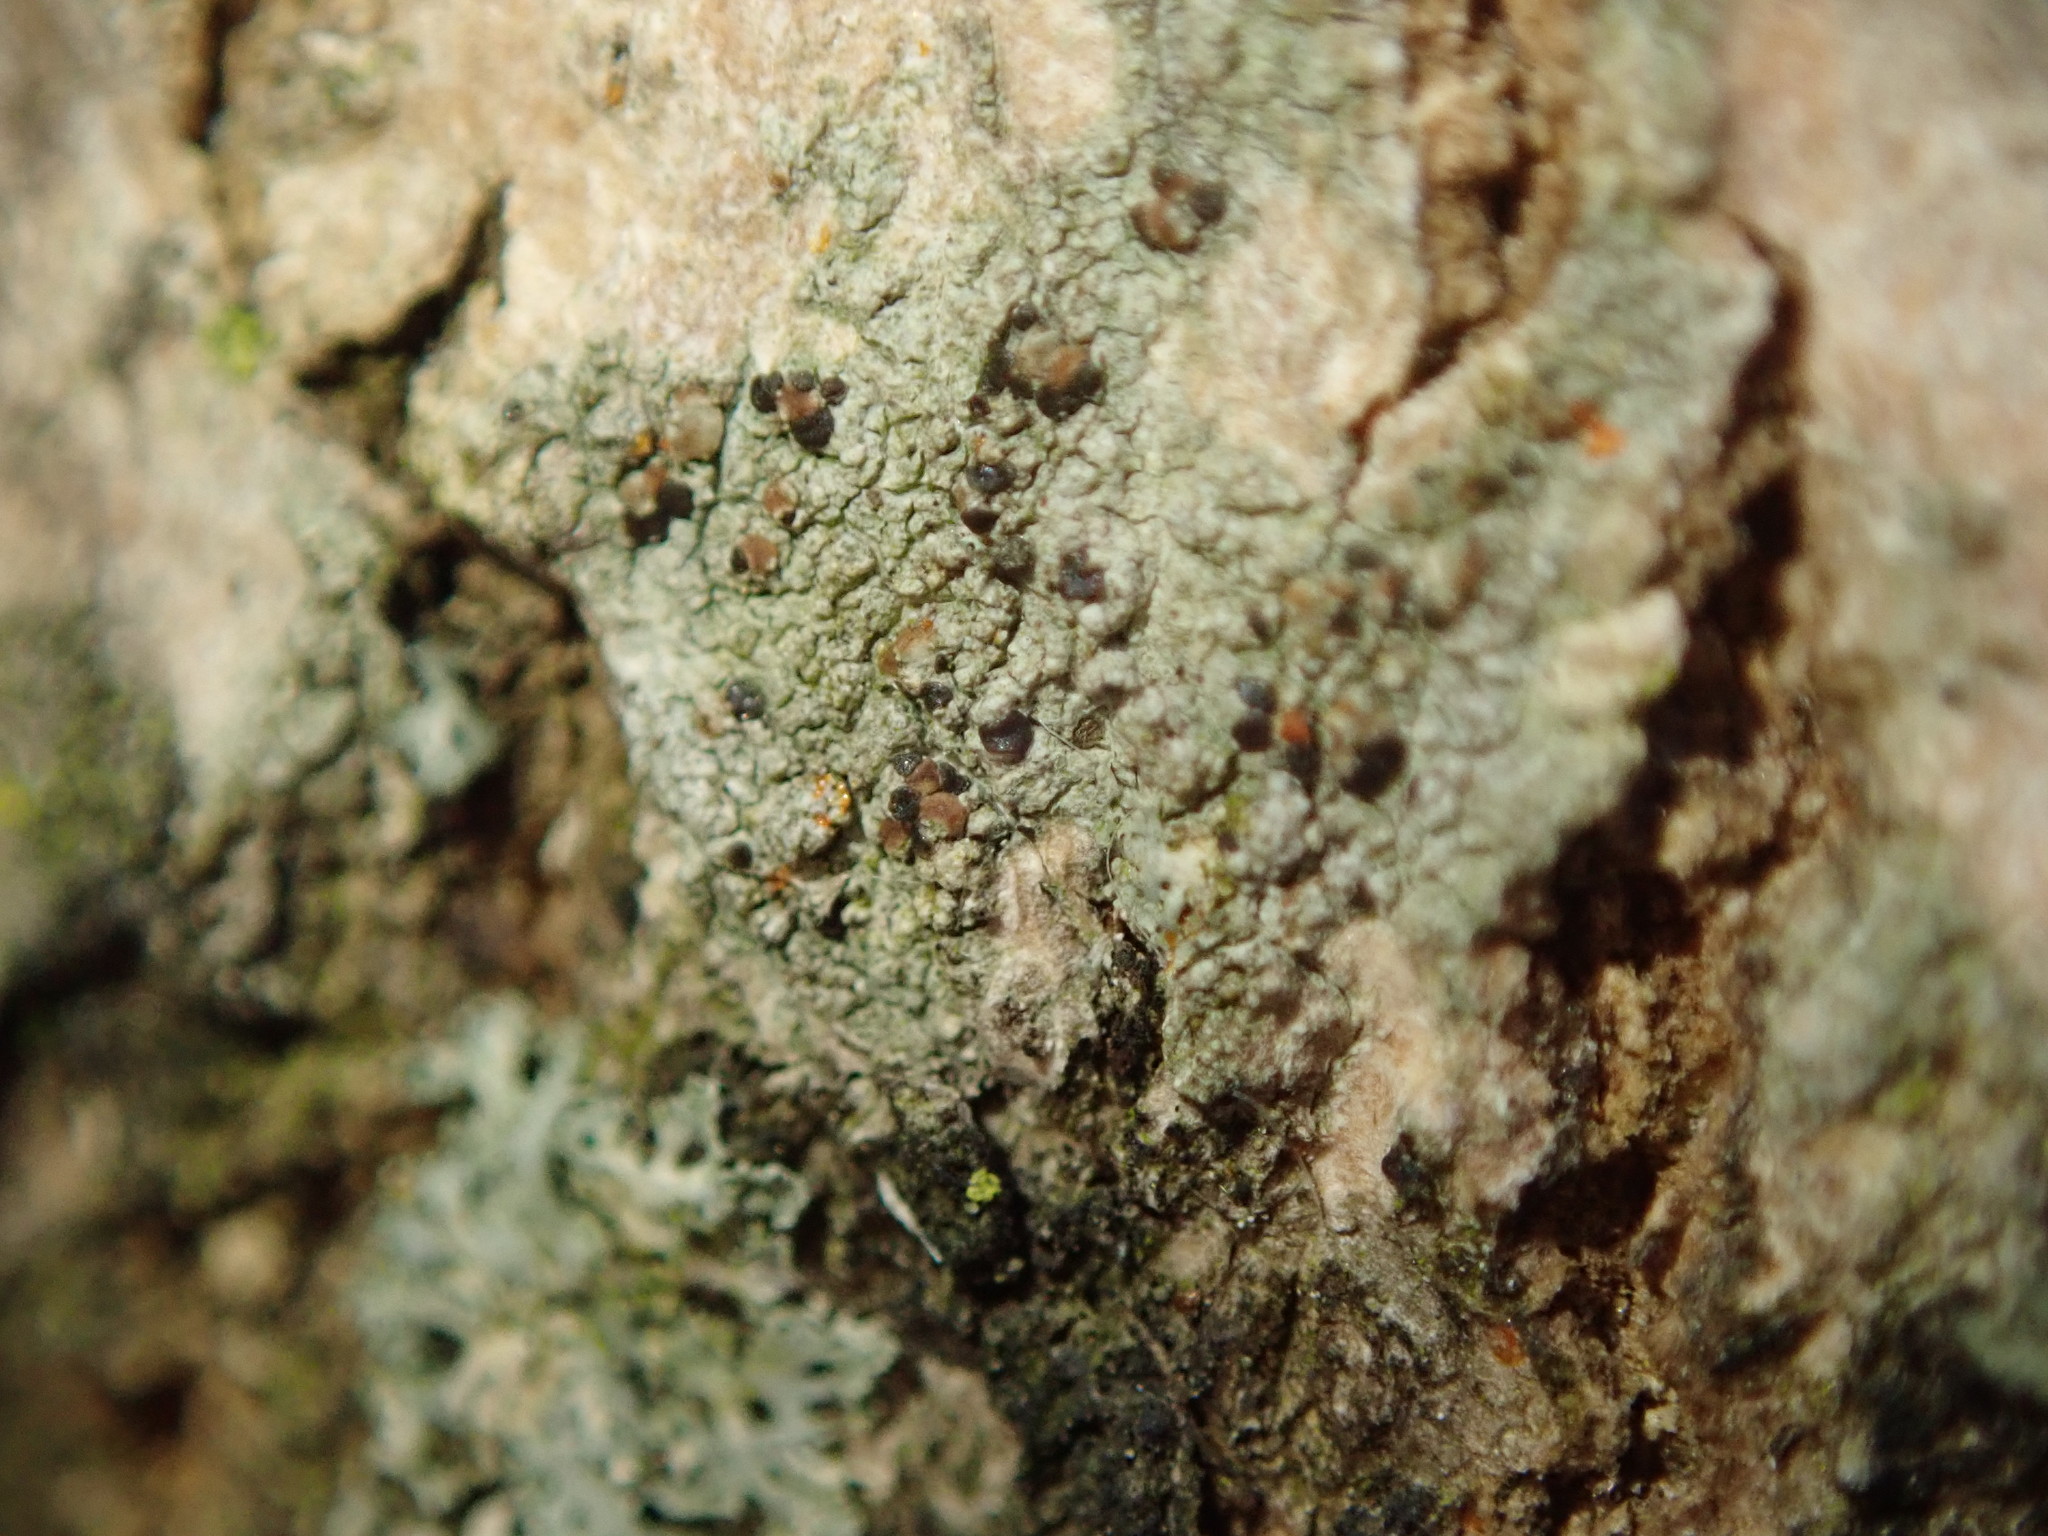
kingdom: Fungi
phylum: Ascomycota
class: Lecanoromycetes
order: Lecanorales
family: Lecanoraceae
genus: Traponora
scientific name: Traponora varians
